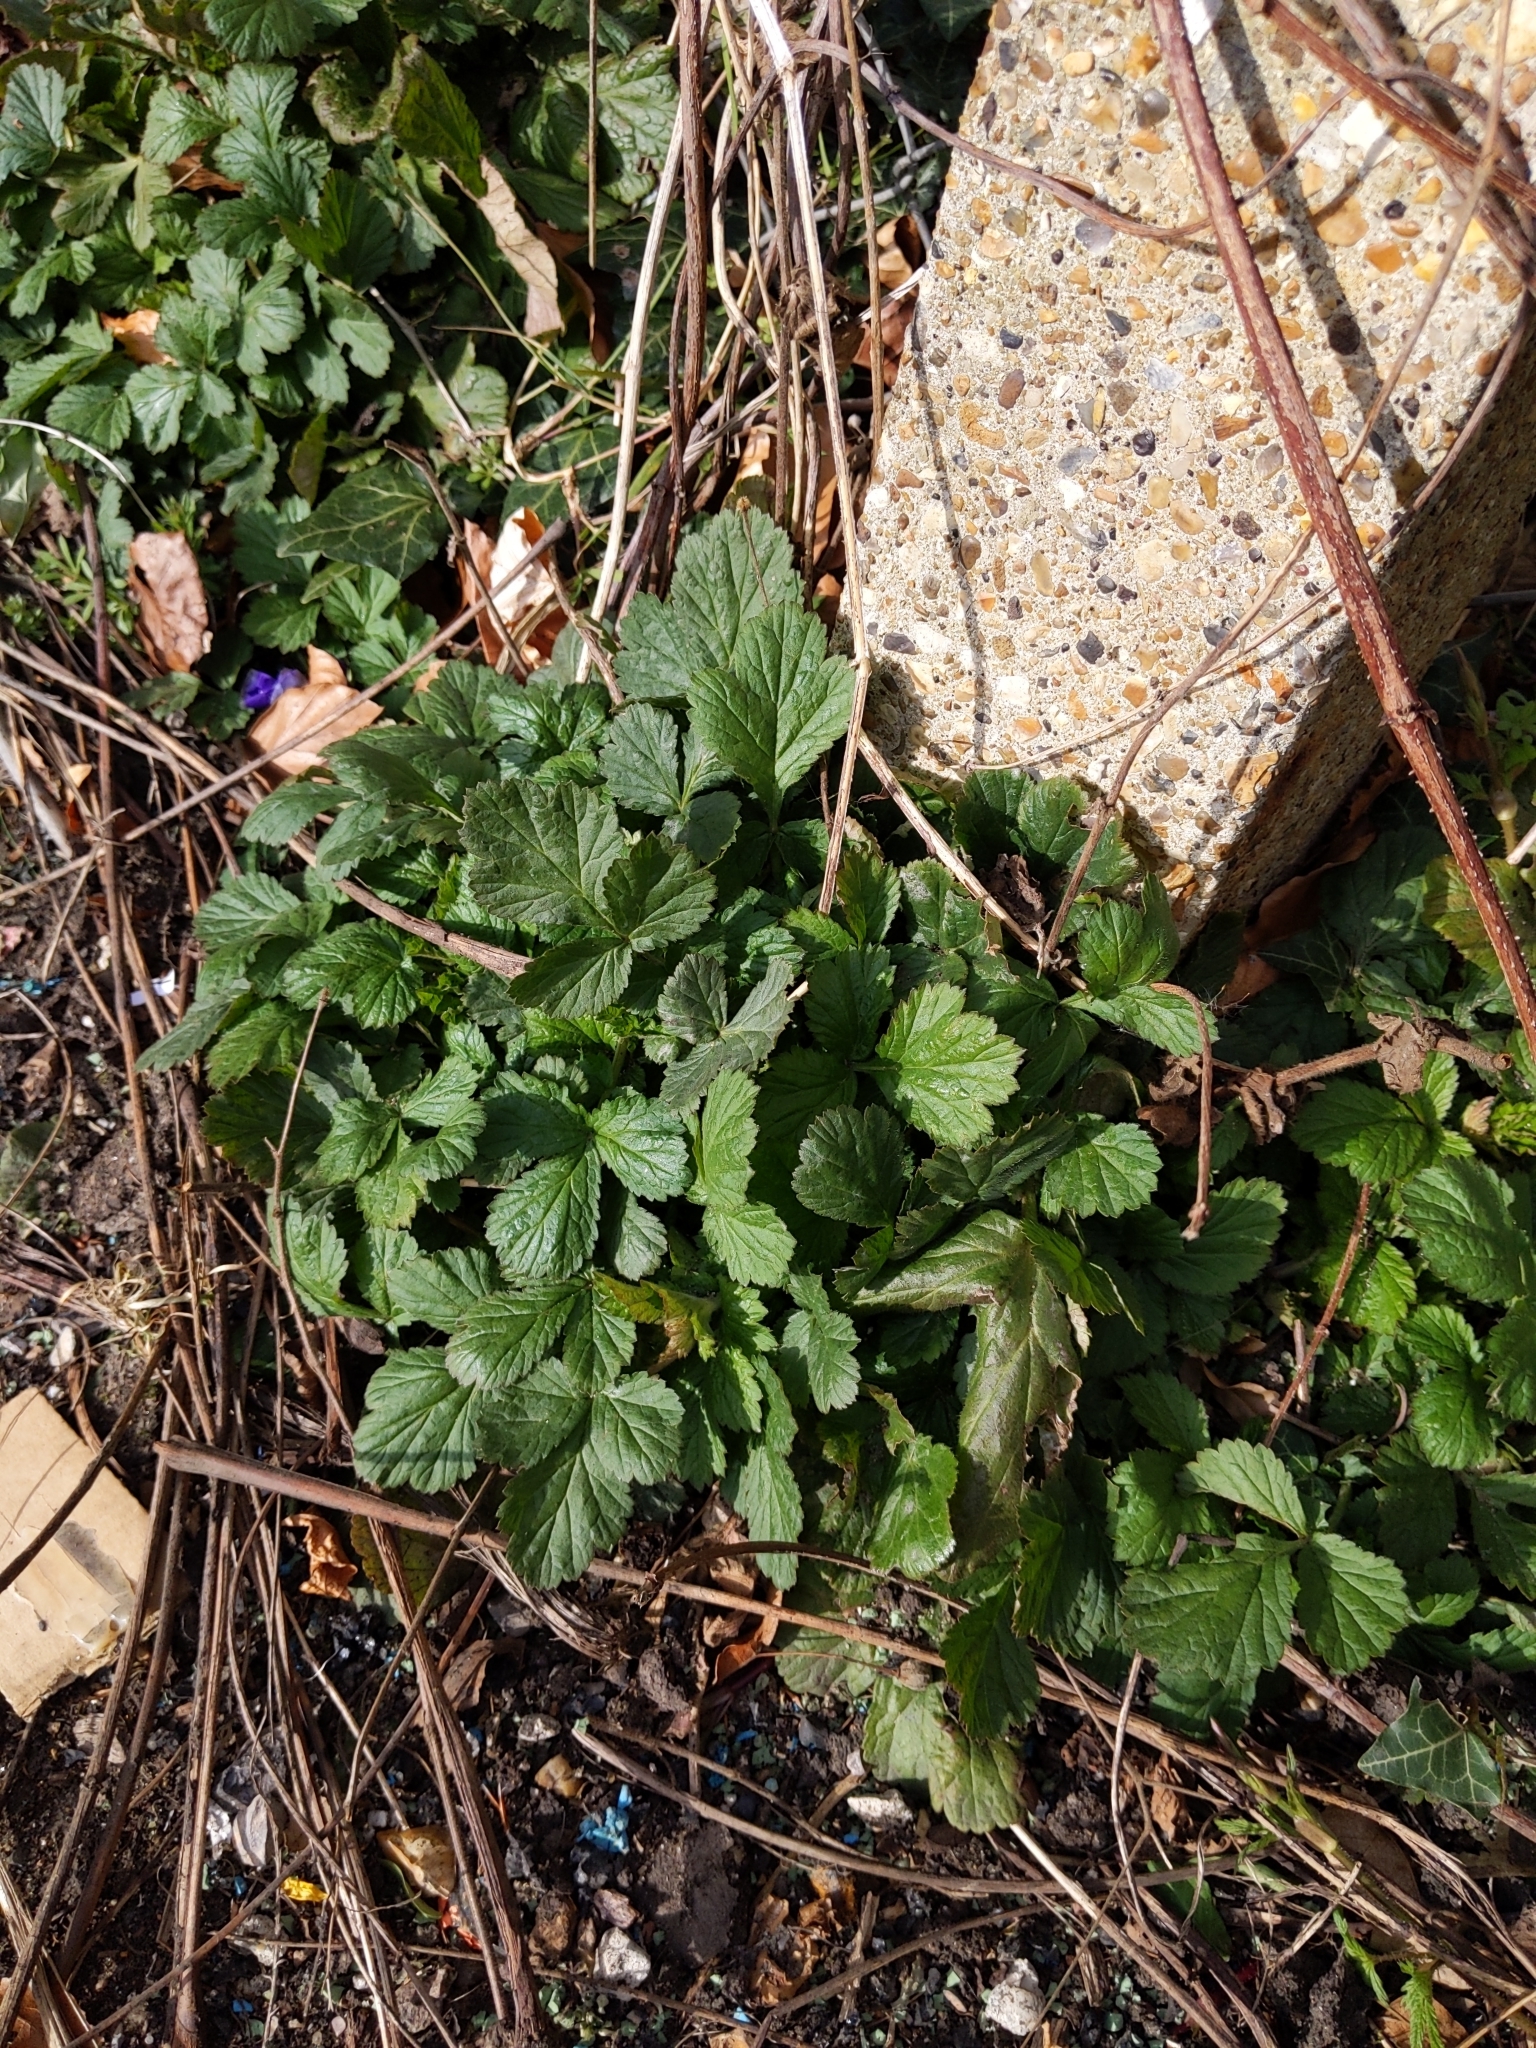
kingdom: Plantae
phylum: Tracheophyta
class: Magnoliopsida
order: Rosales
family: Rosaceae
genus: Geum
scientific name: Geum urbanum
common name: Wood avens
